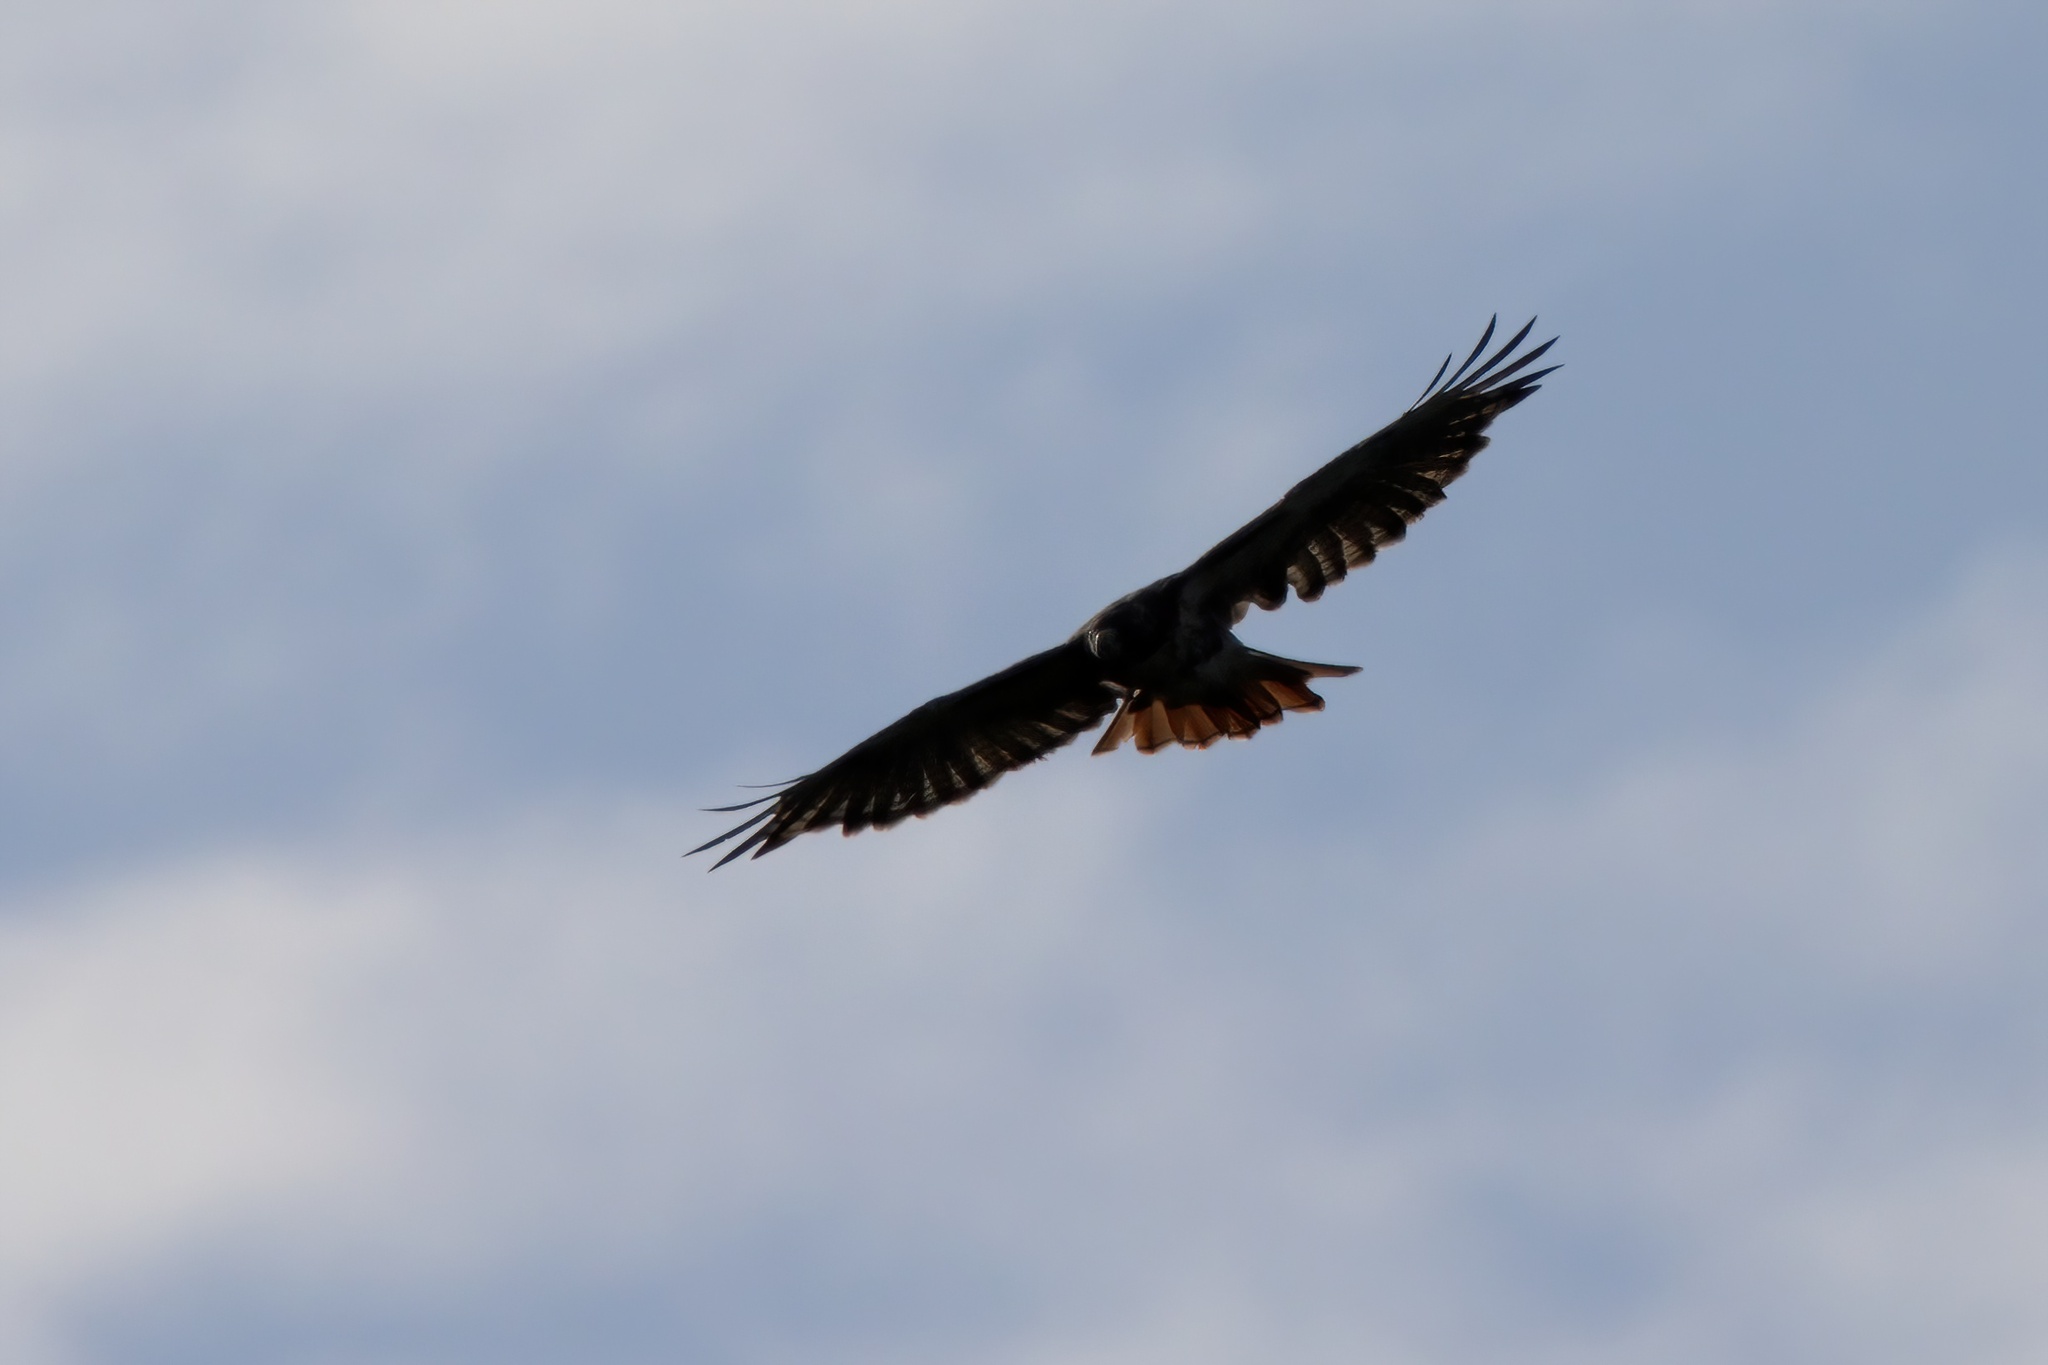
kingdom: Animalia
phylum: Chordata
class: Aves
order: Accipitriformes
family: Accipitridae
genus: Buteo
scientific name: Buteo jamaicensis
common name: Red-tailed hawk
